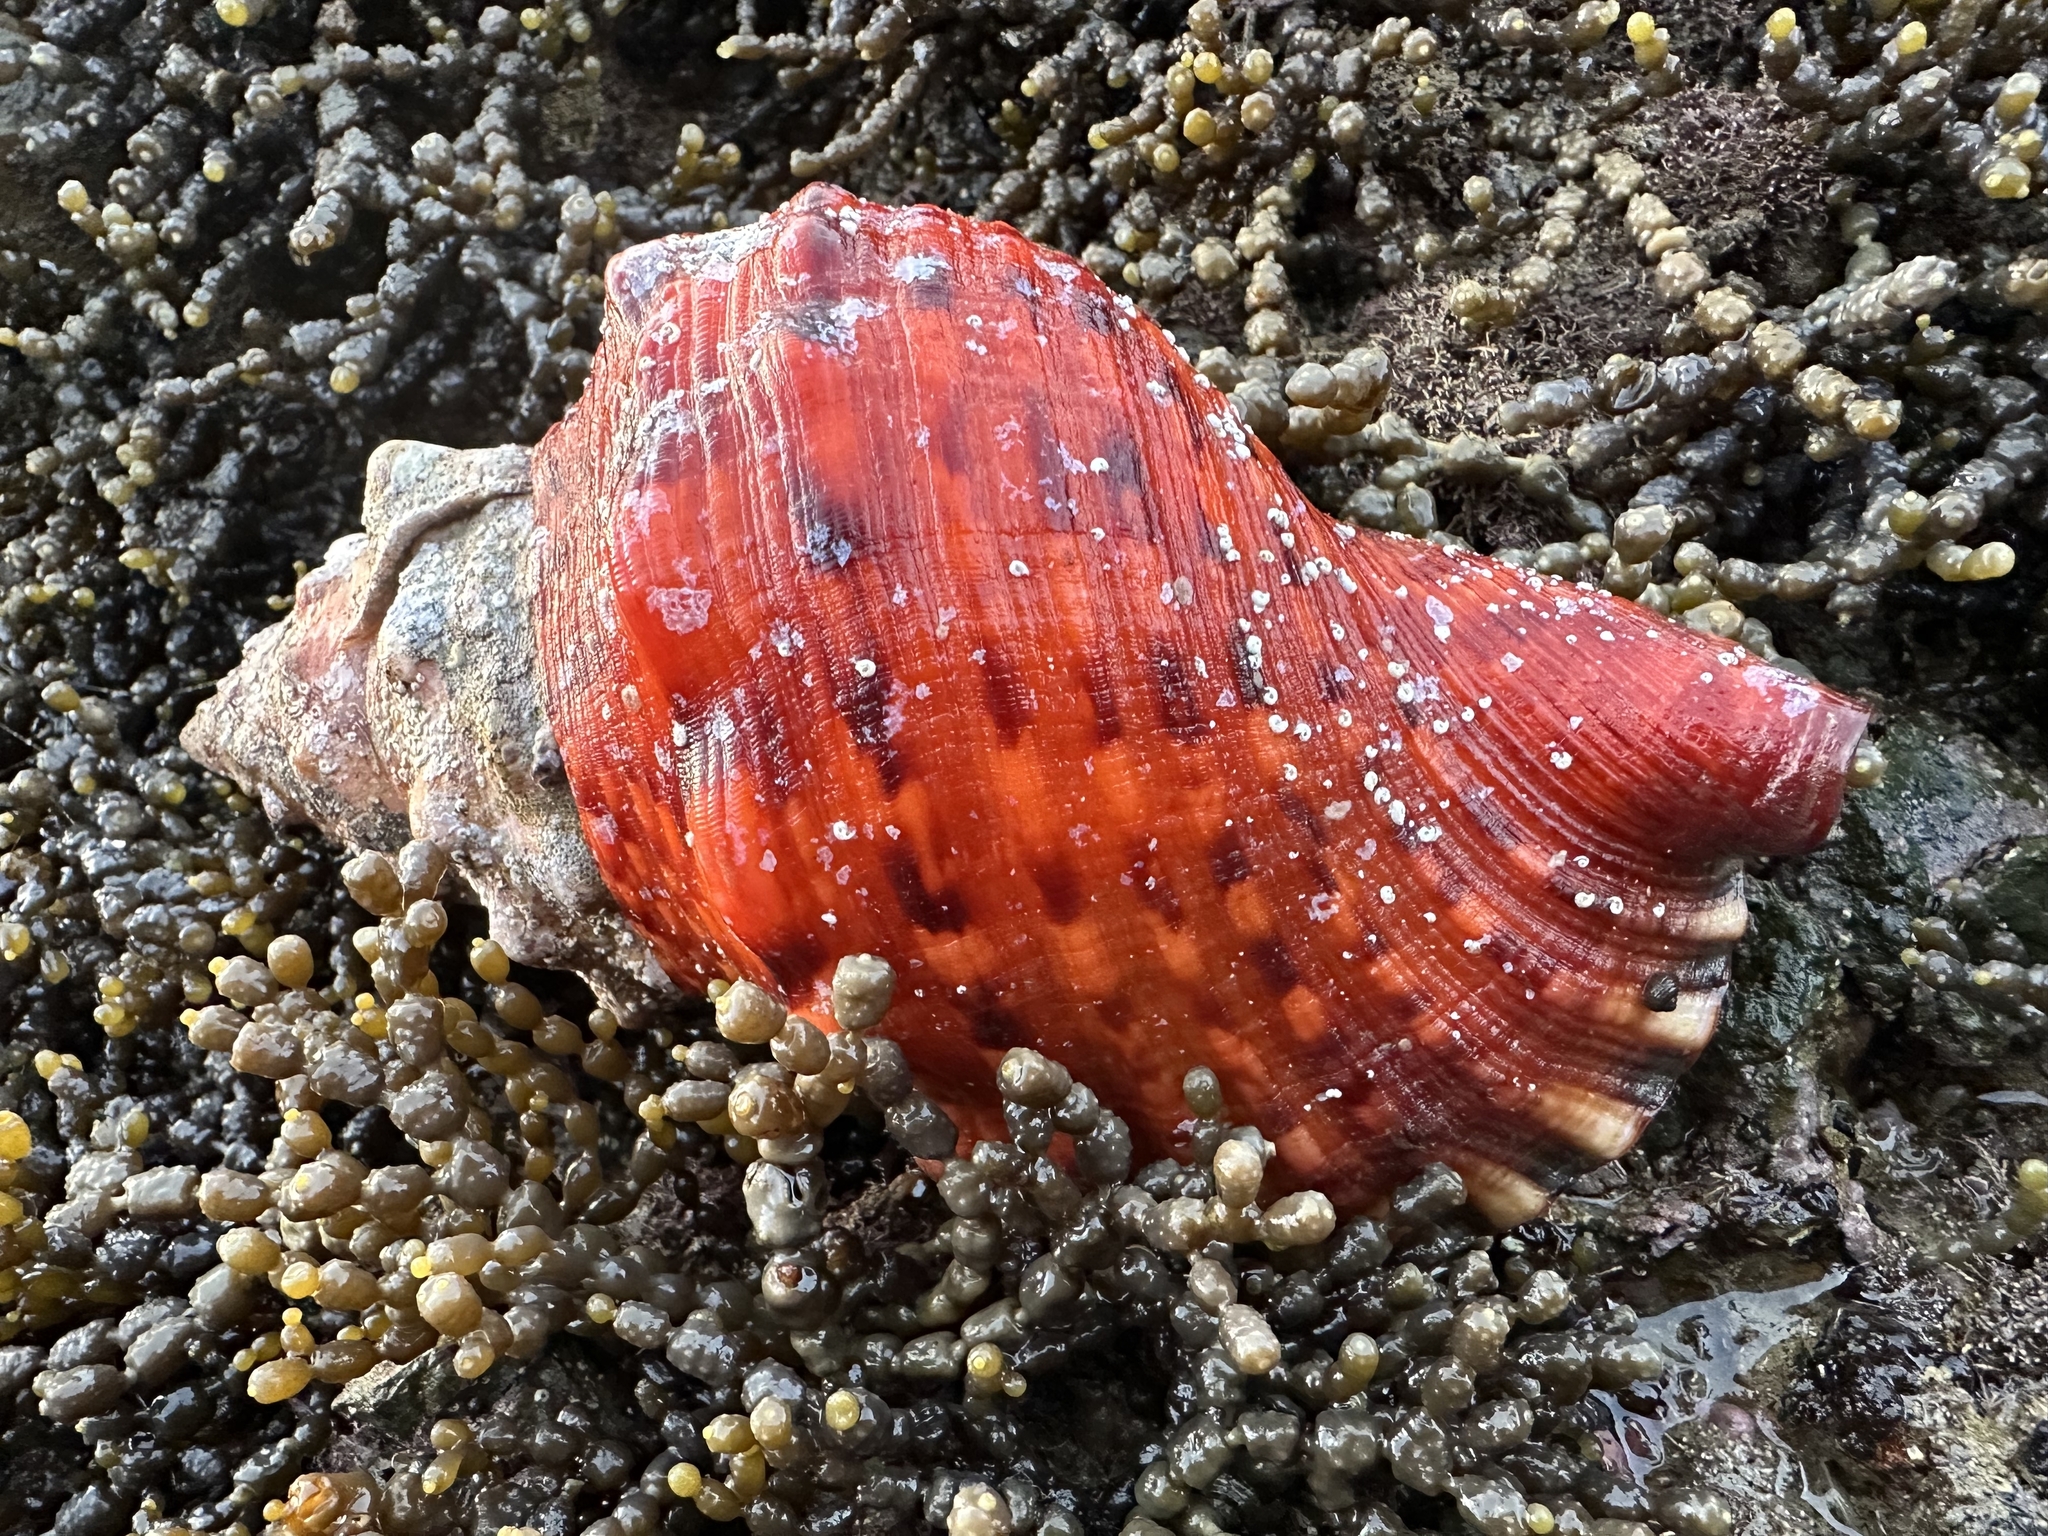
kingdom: Animalia
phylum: Mollusca
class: Gastropoda
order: Littorinimorpha
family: Charoniidae
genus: Charonia
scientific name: Charonia lampas
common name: Knobbed triton
